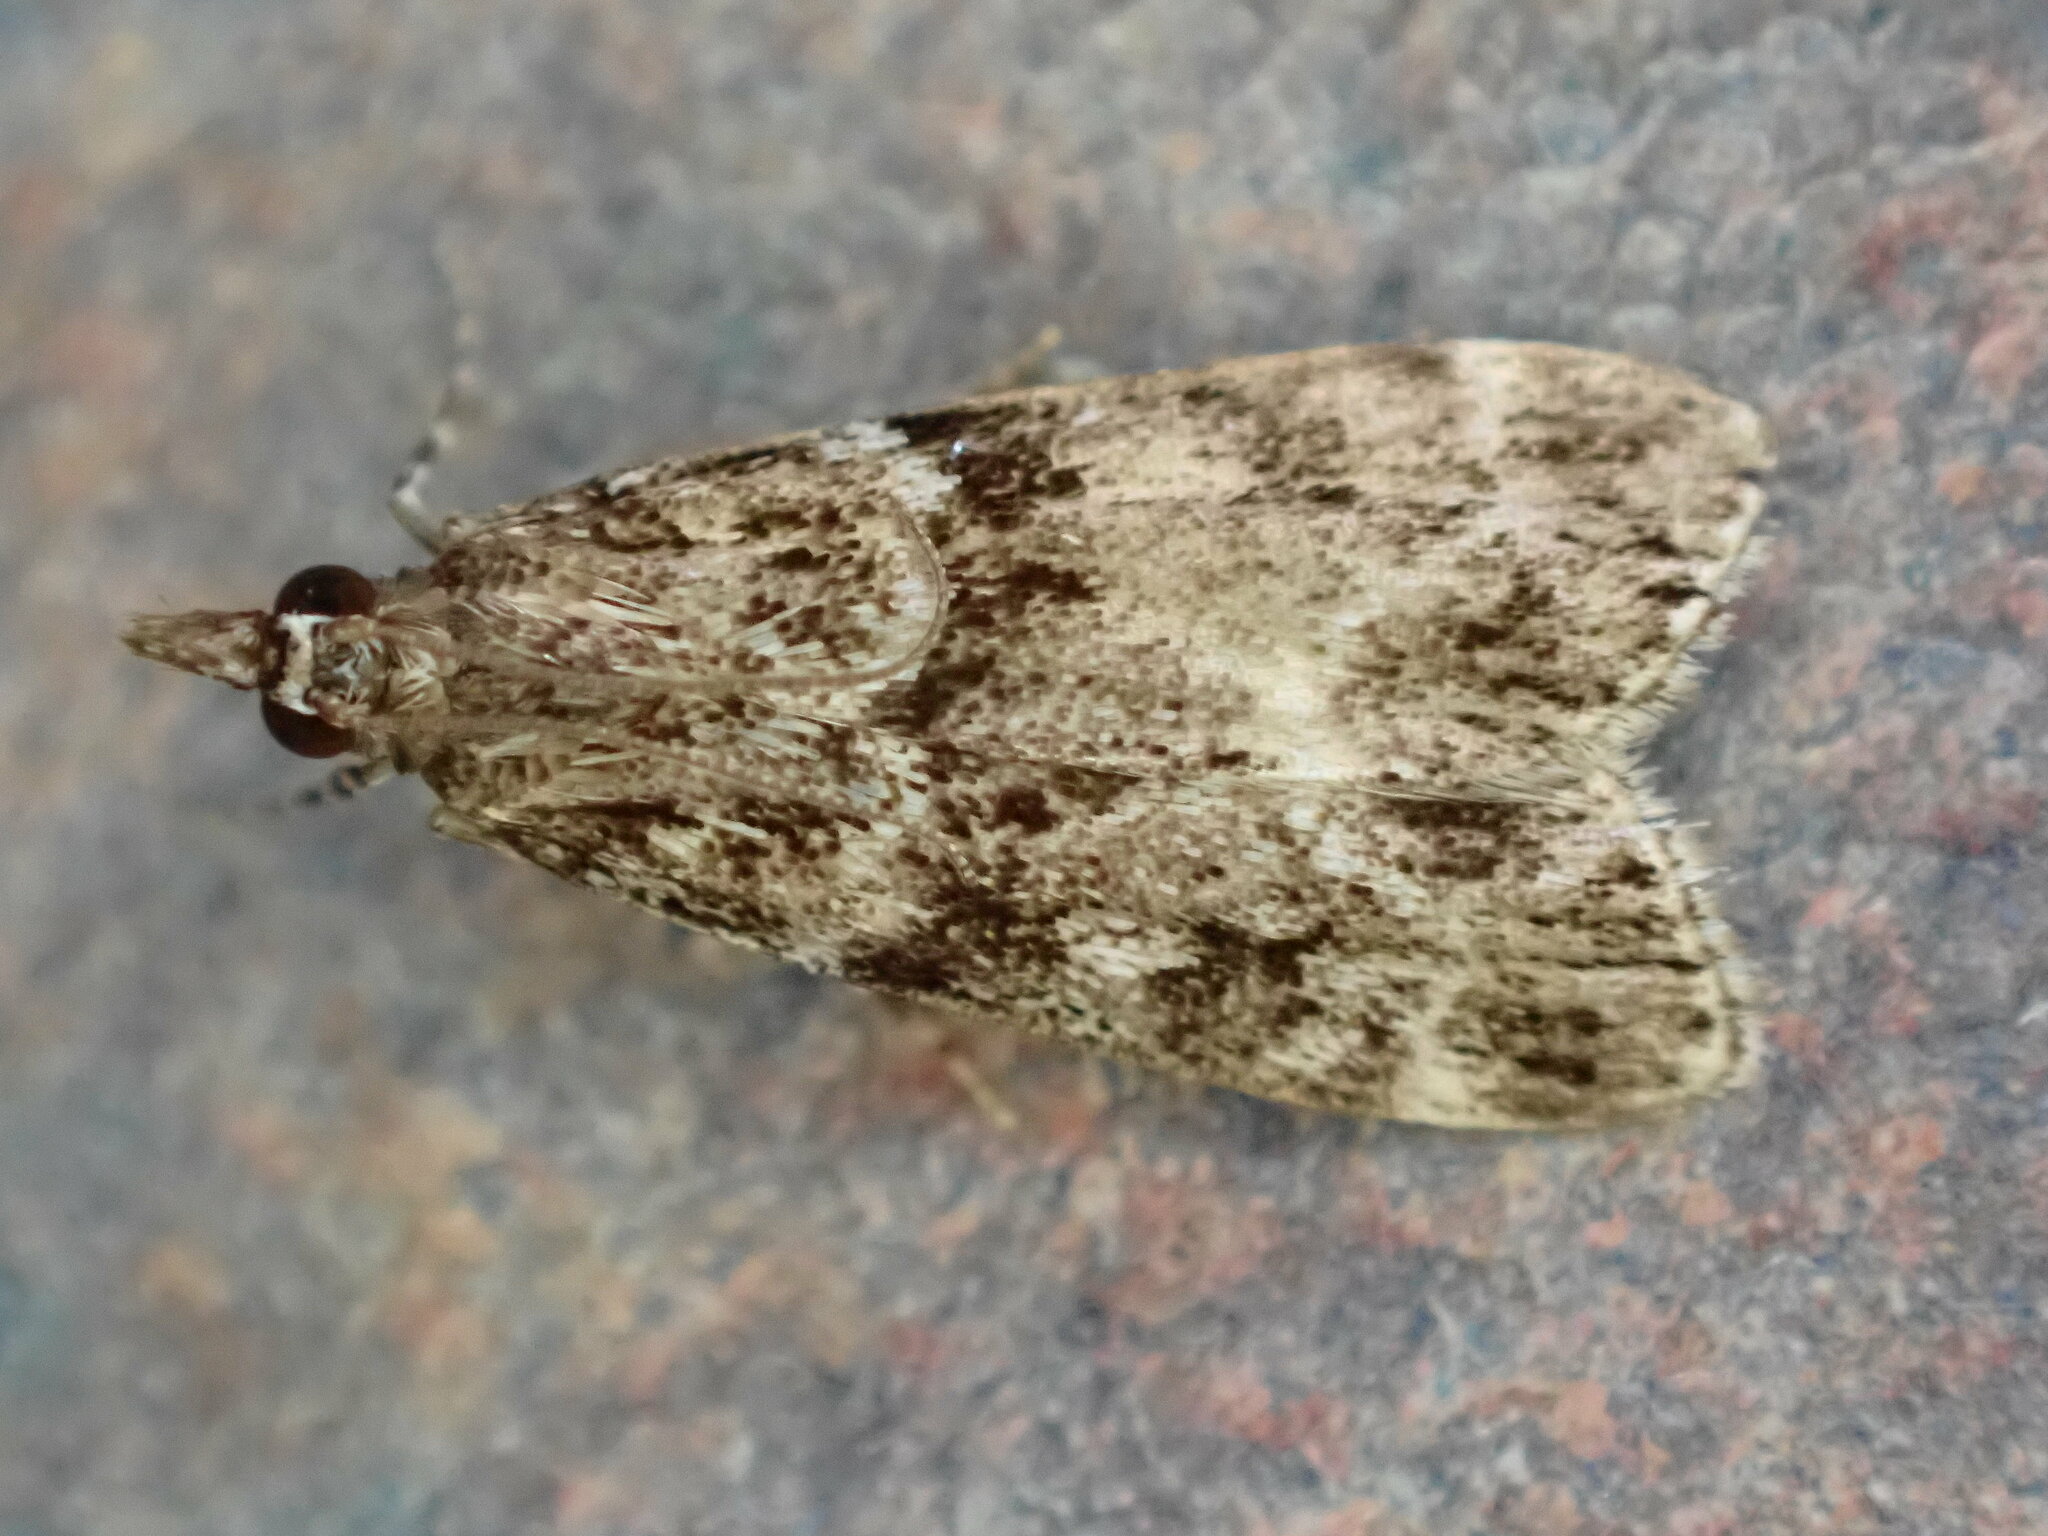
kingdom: Animalia
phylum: Arthropoda
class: Insecta
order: Lepidoptera
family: Crambidae
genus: Eudonia
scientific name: Eudonia mercurella
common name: Small grey
